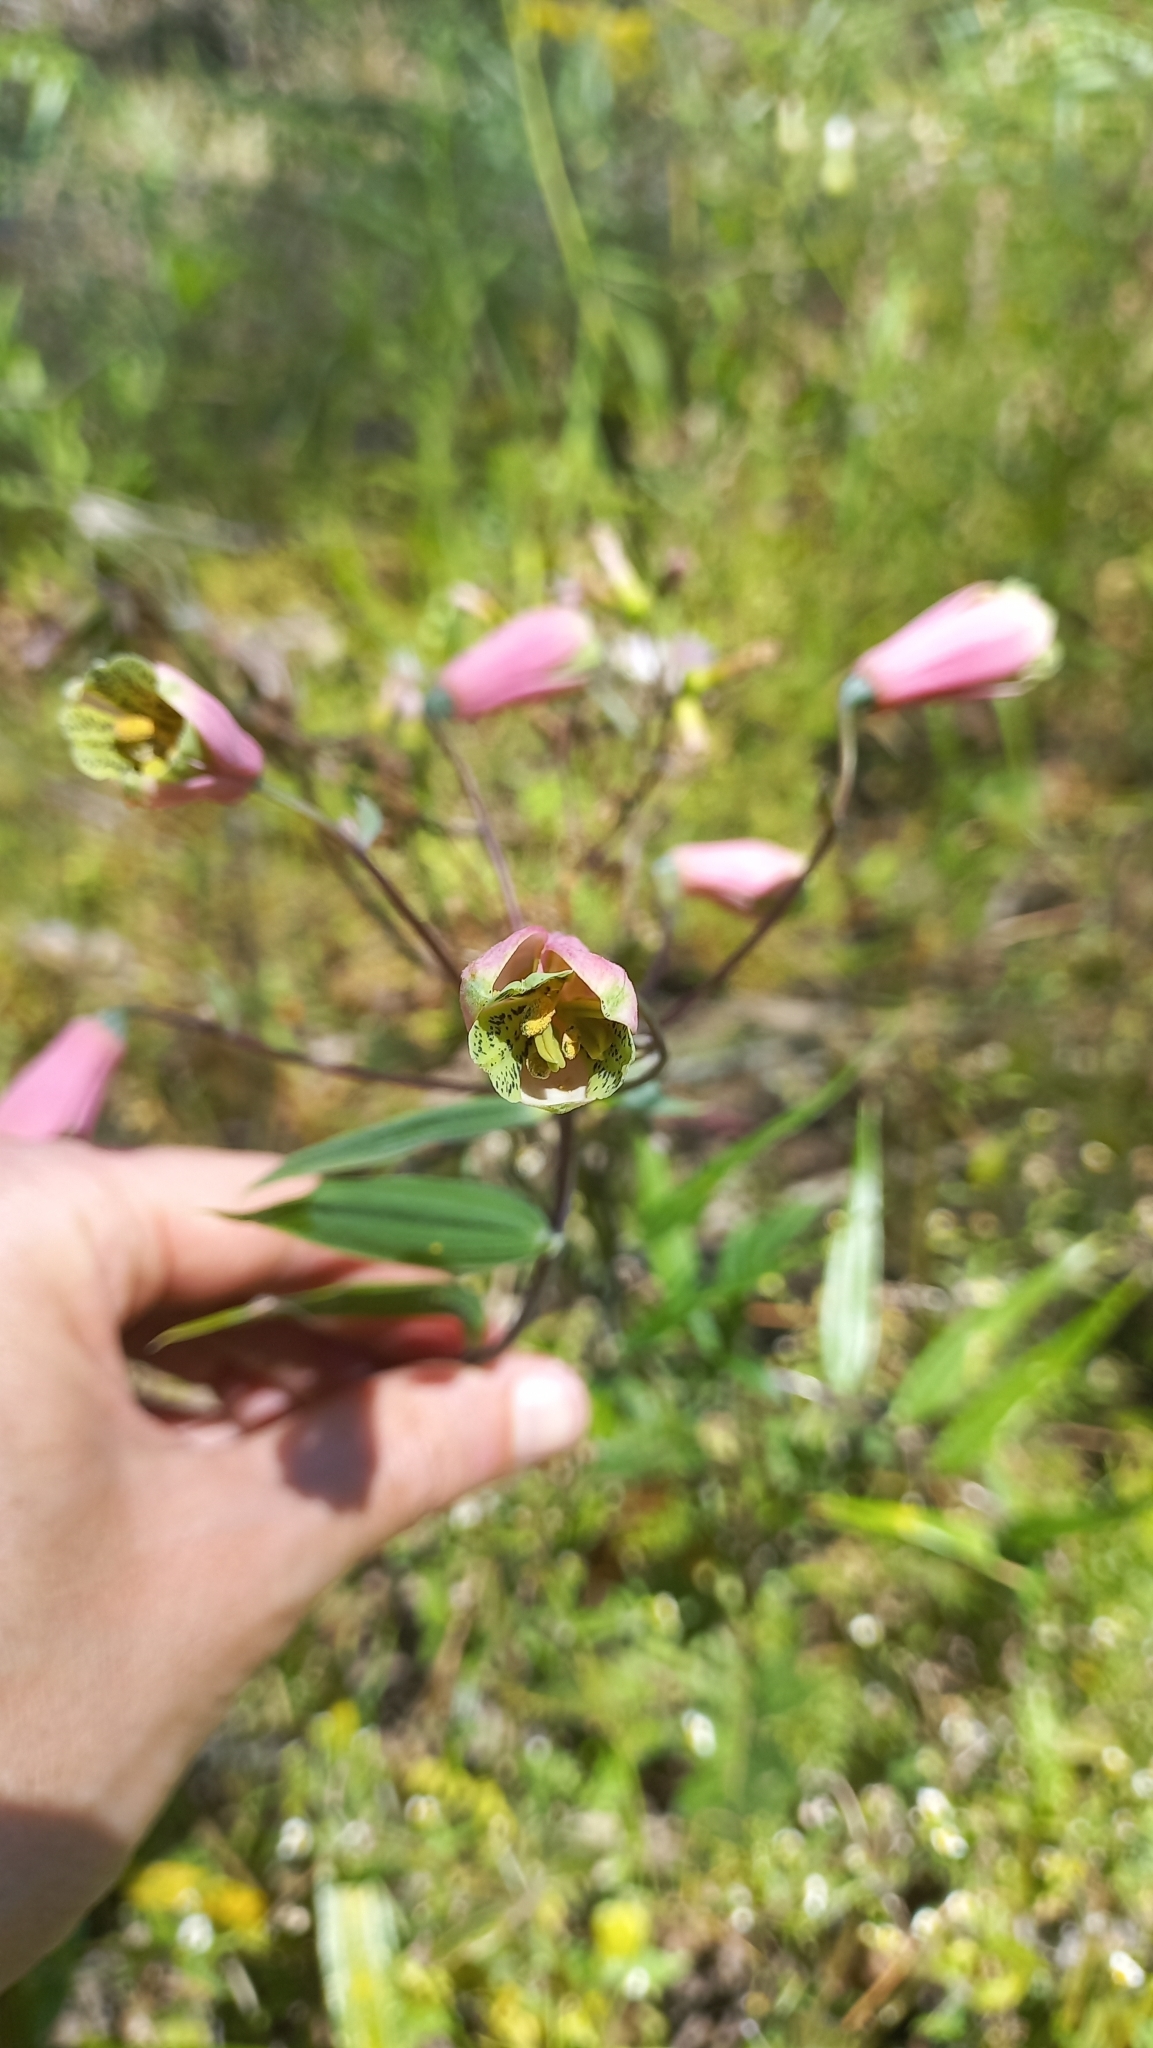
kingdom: Plantae
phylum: Tracheophyta
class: Liliopsida
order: Liliales
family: Alstroemeriaceae
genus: Bomarea
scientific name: Bomarea edulis
